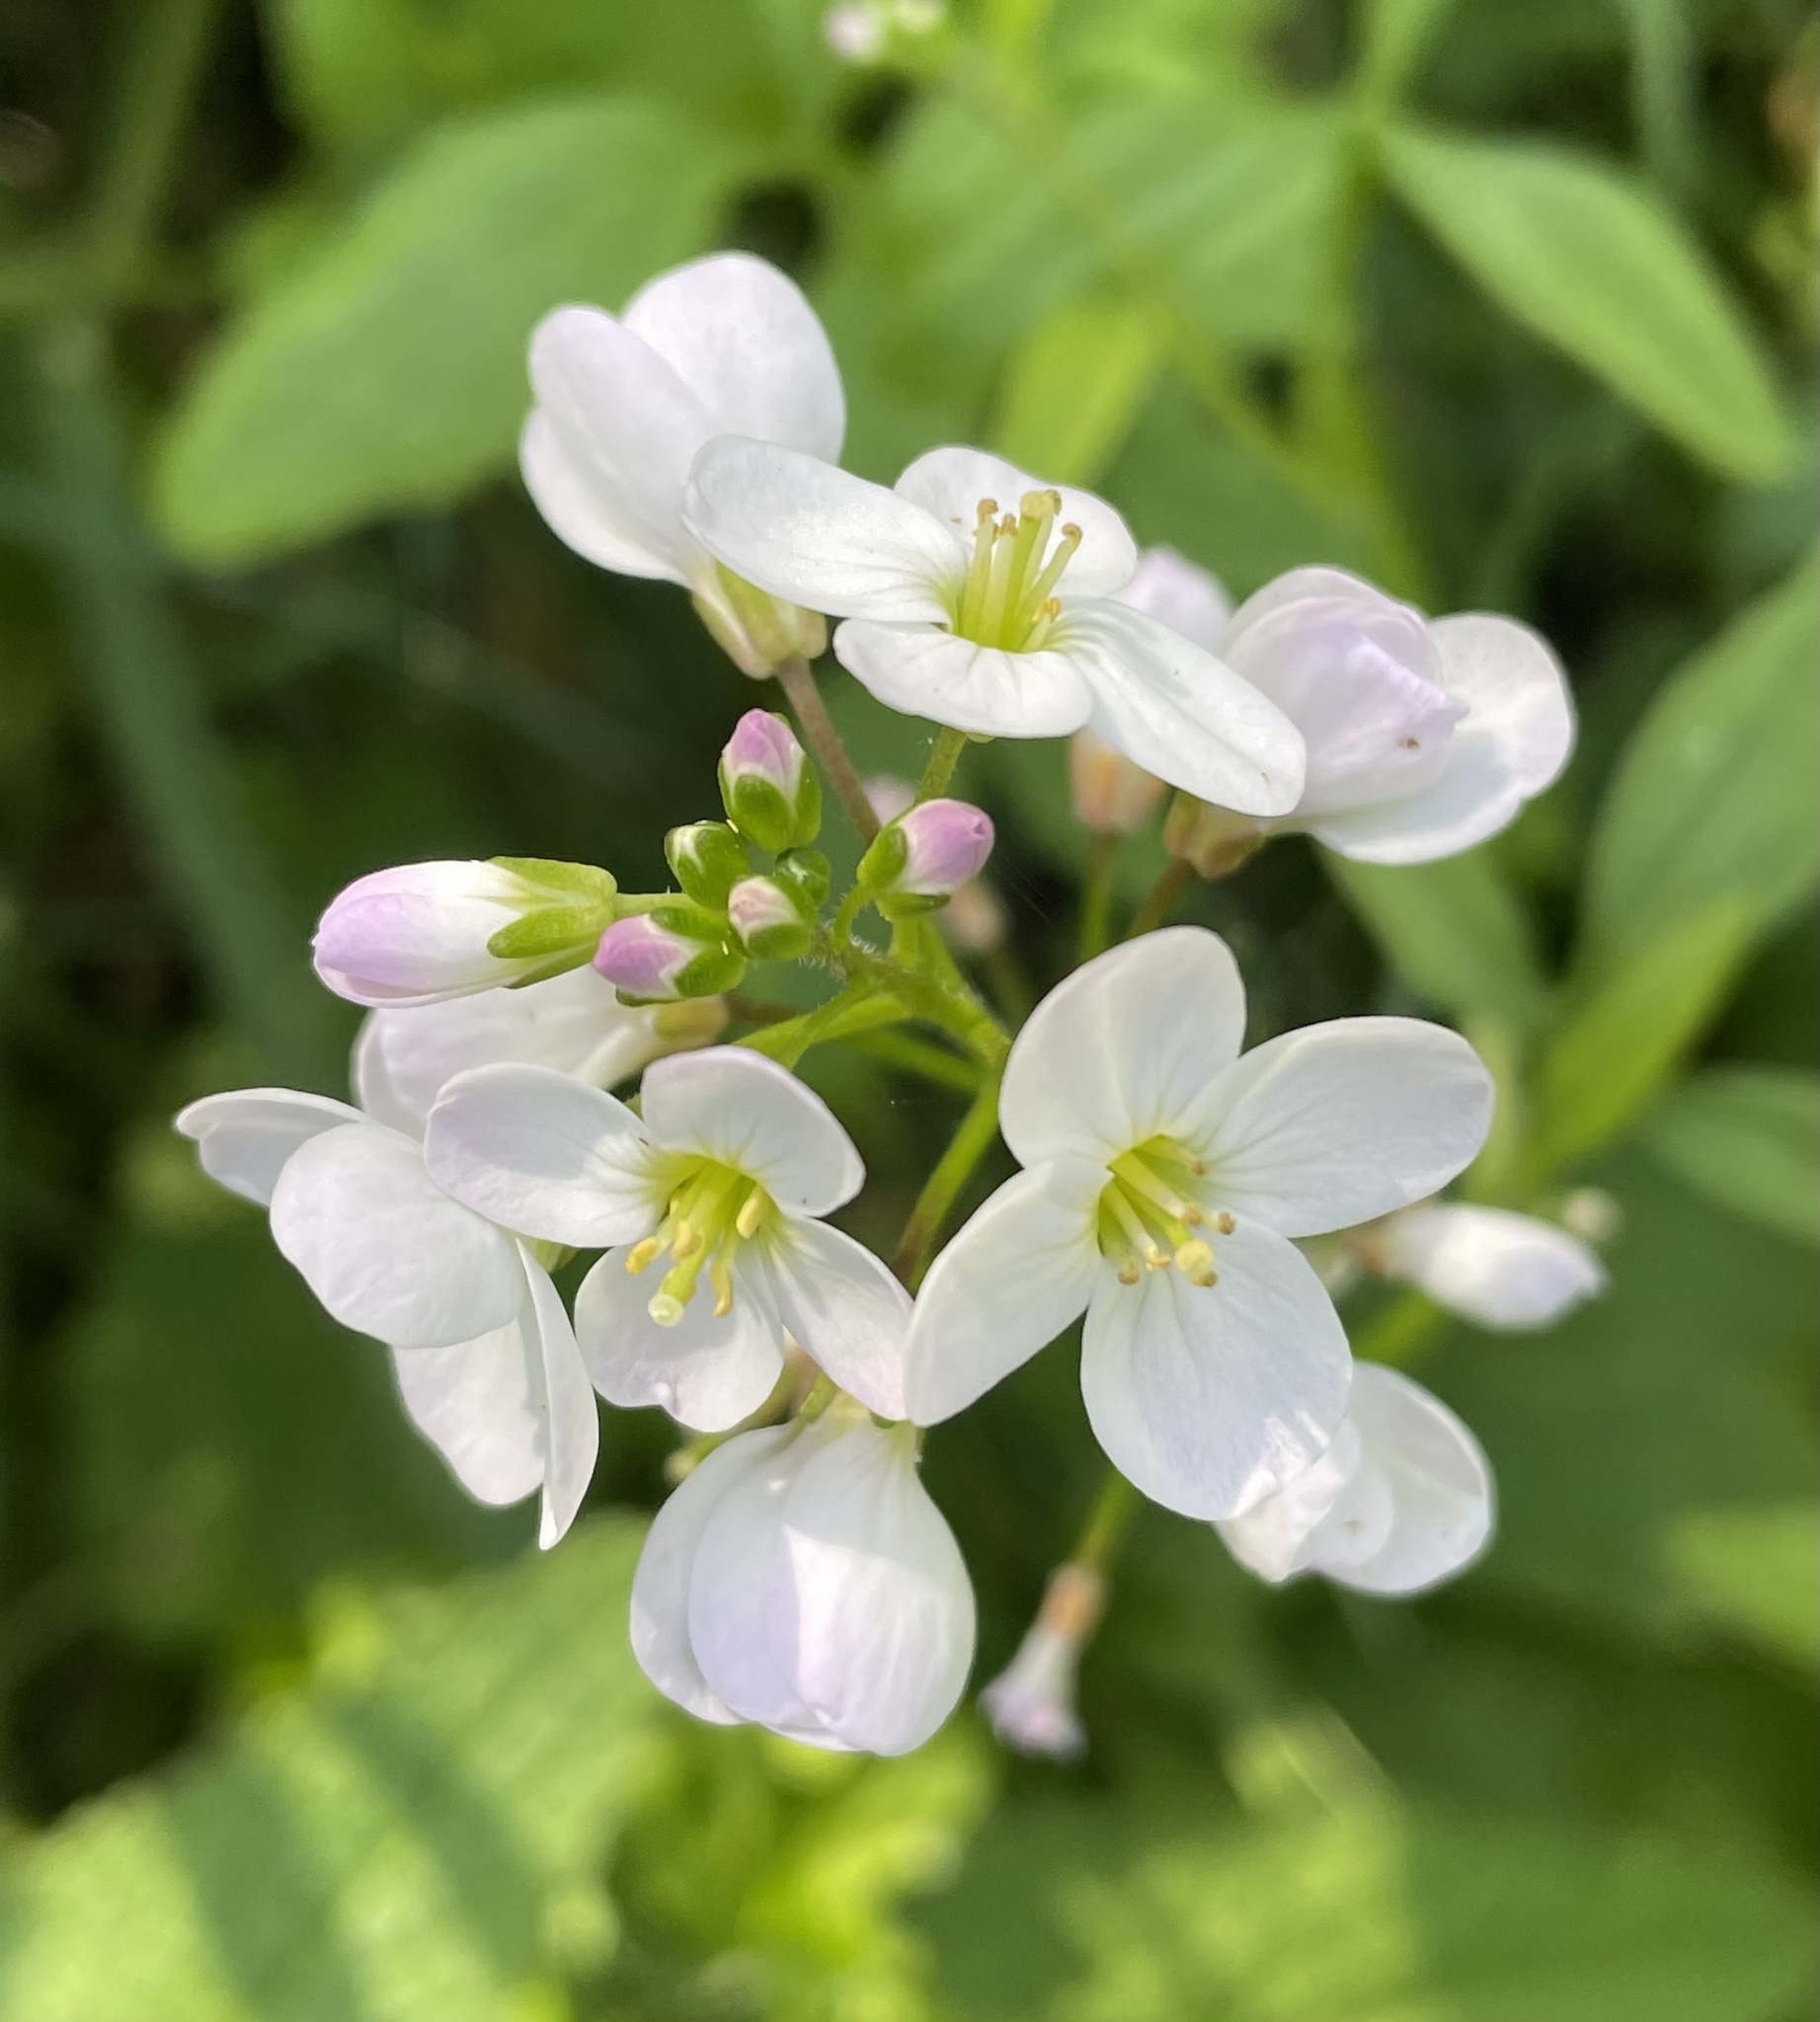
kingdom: Plantae
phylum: Tracheophyta
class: Magnoliopsida
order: Brassicales
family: Brassicaceae
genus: Cardamine
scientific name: Cardamine californica
